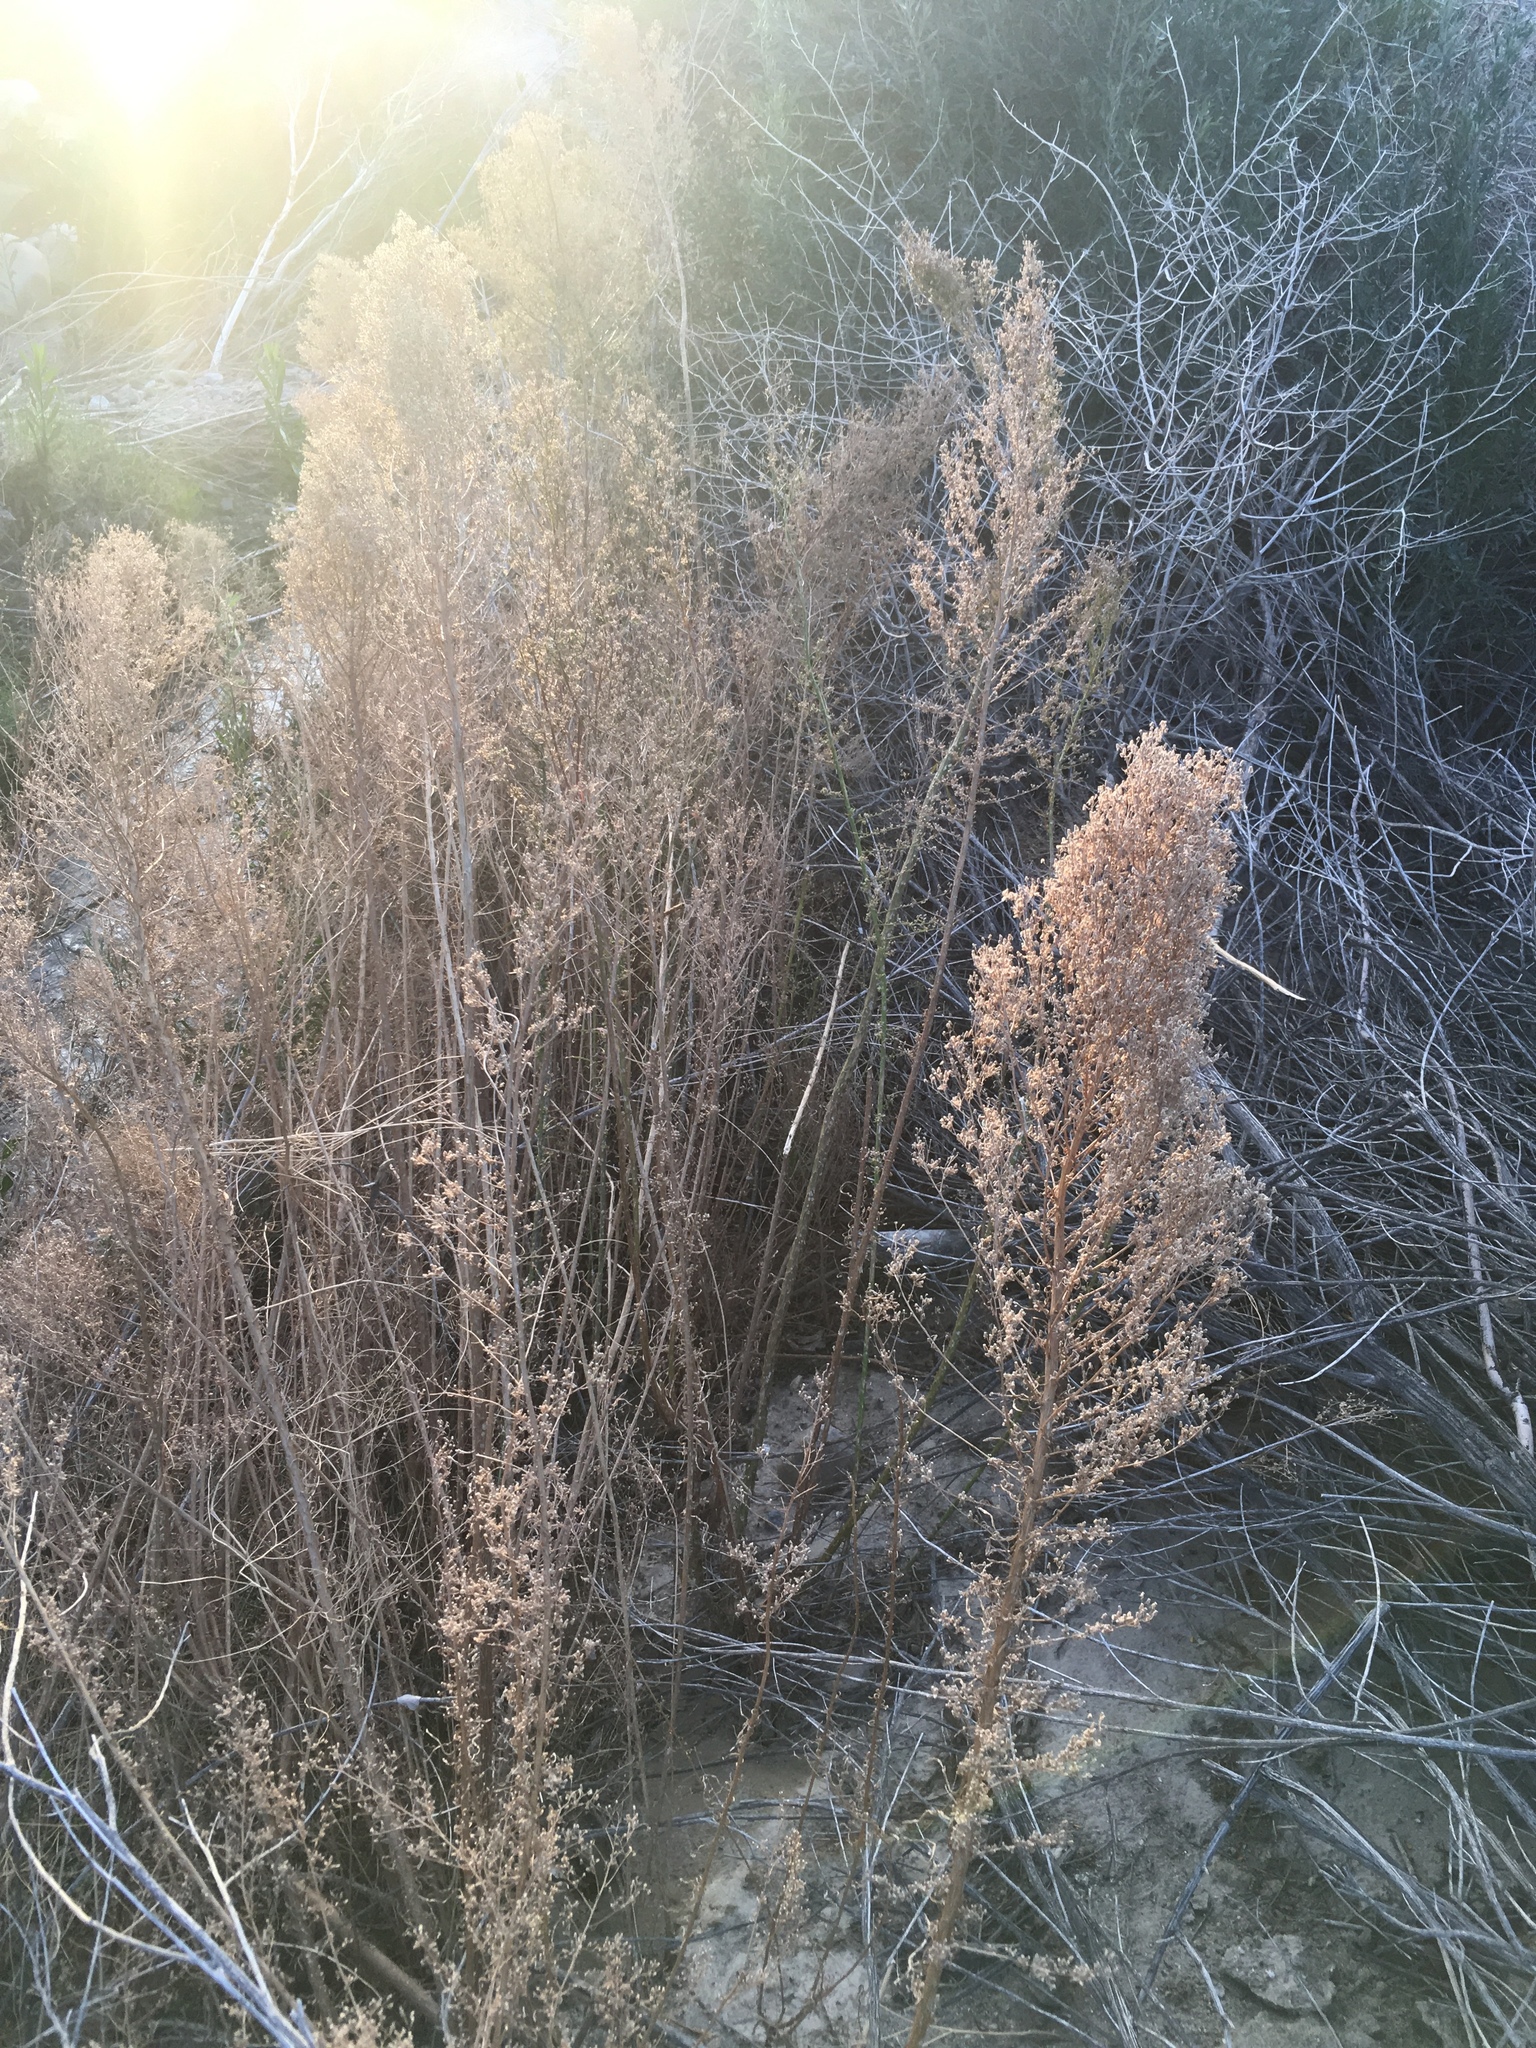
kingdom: Plantae
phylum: Tracheophyta
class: Magnoliopsida
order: Asterales
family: Asteraceae
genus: Erigeron
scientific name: Erigeron canadensis
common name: Canadian fleabane
